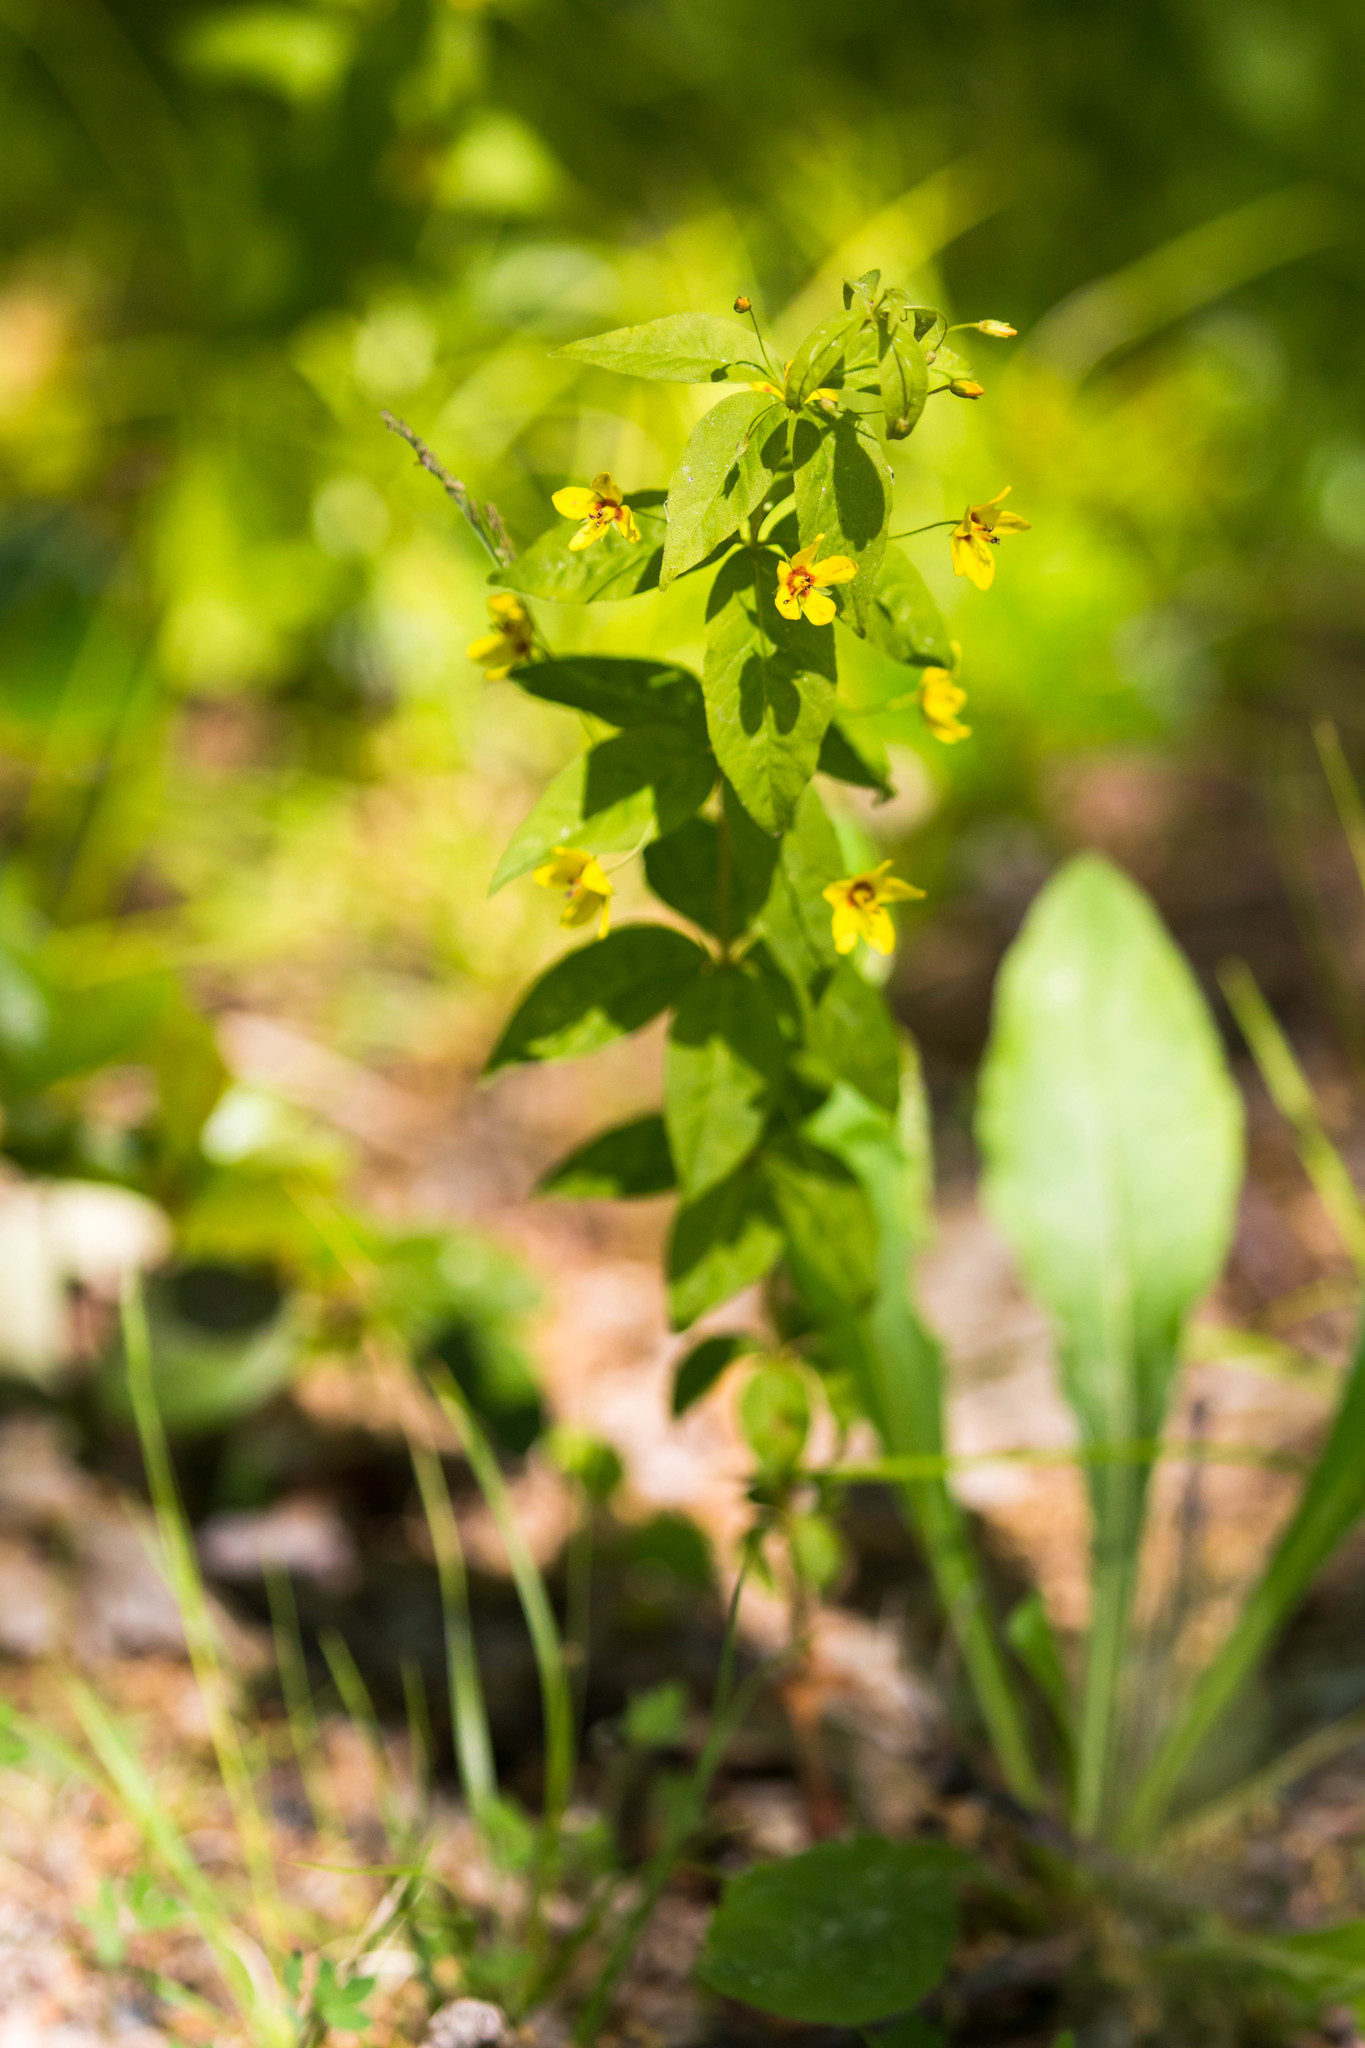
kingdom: Plantae
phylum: Tracheophyta
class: Magnoliopsida
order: Ericales
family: Primulaceae
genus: Lysimachia
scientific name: Lysimachia quadrifolia
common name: Whorled loosestrife
